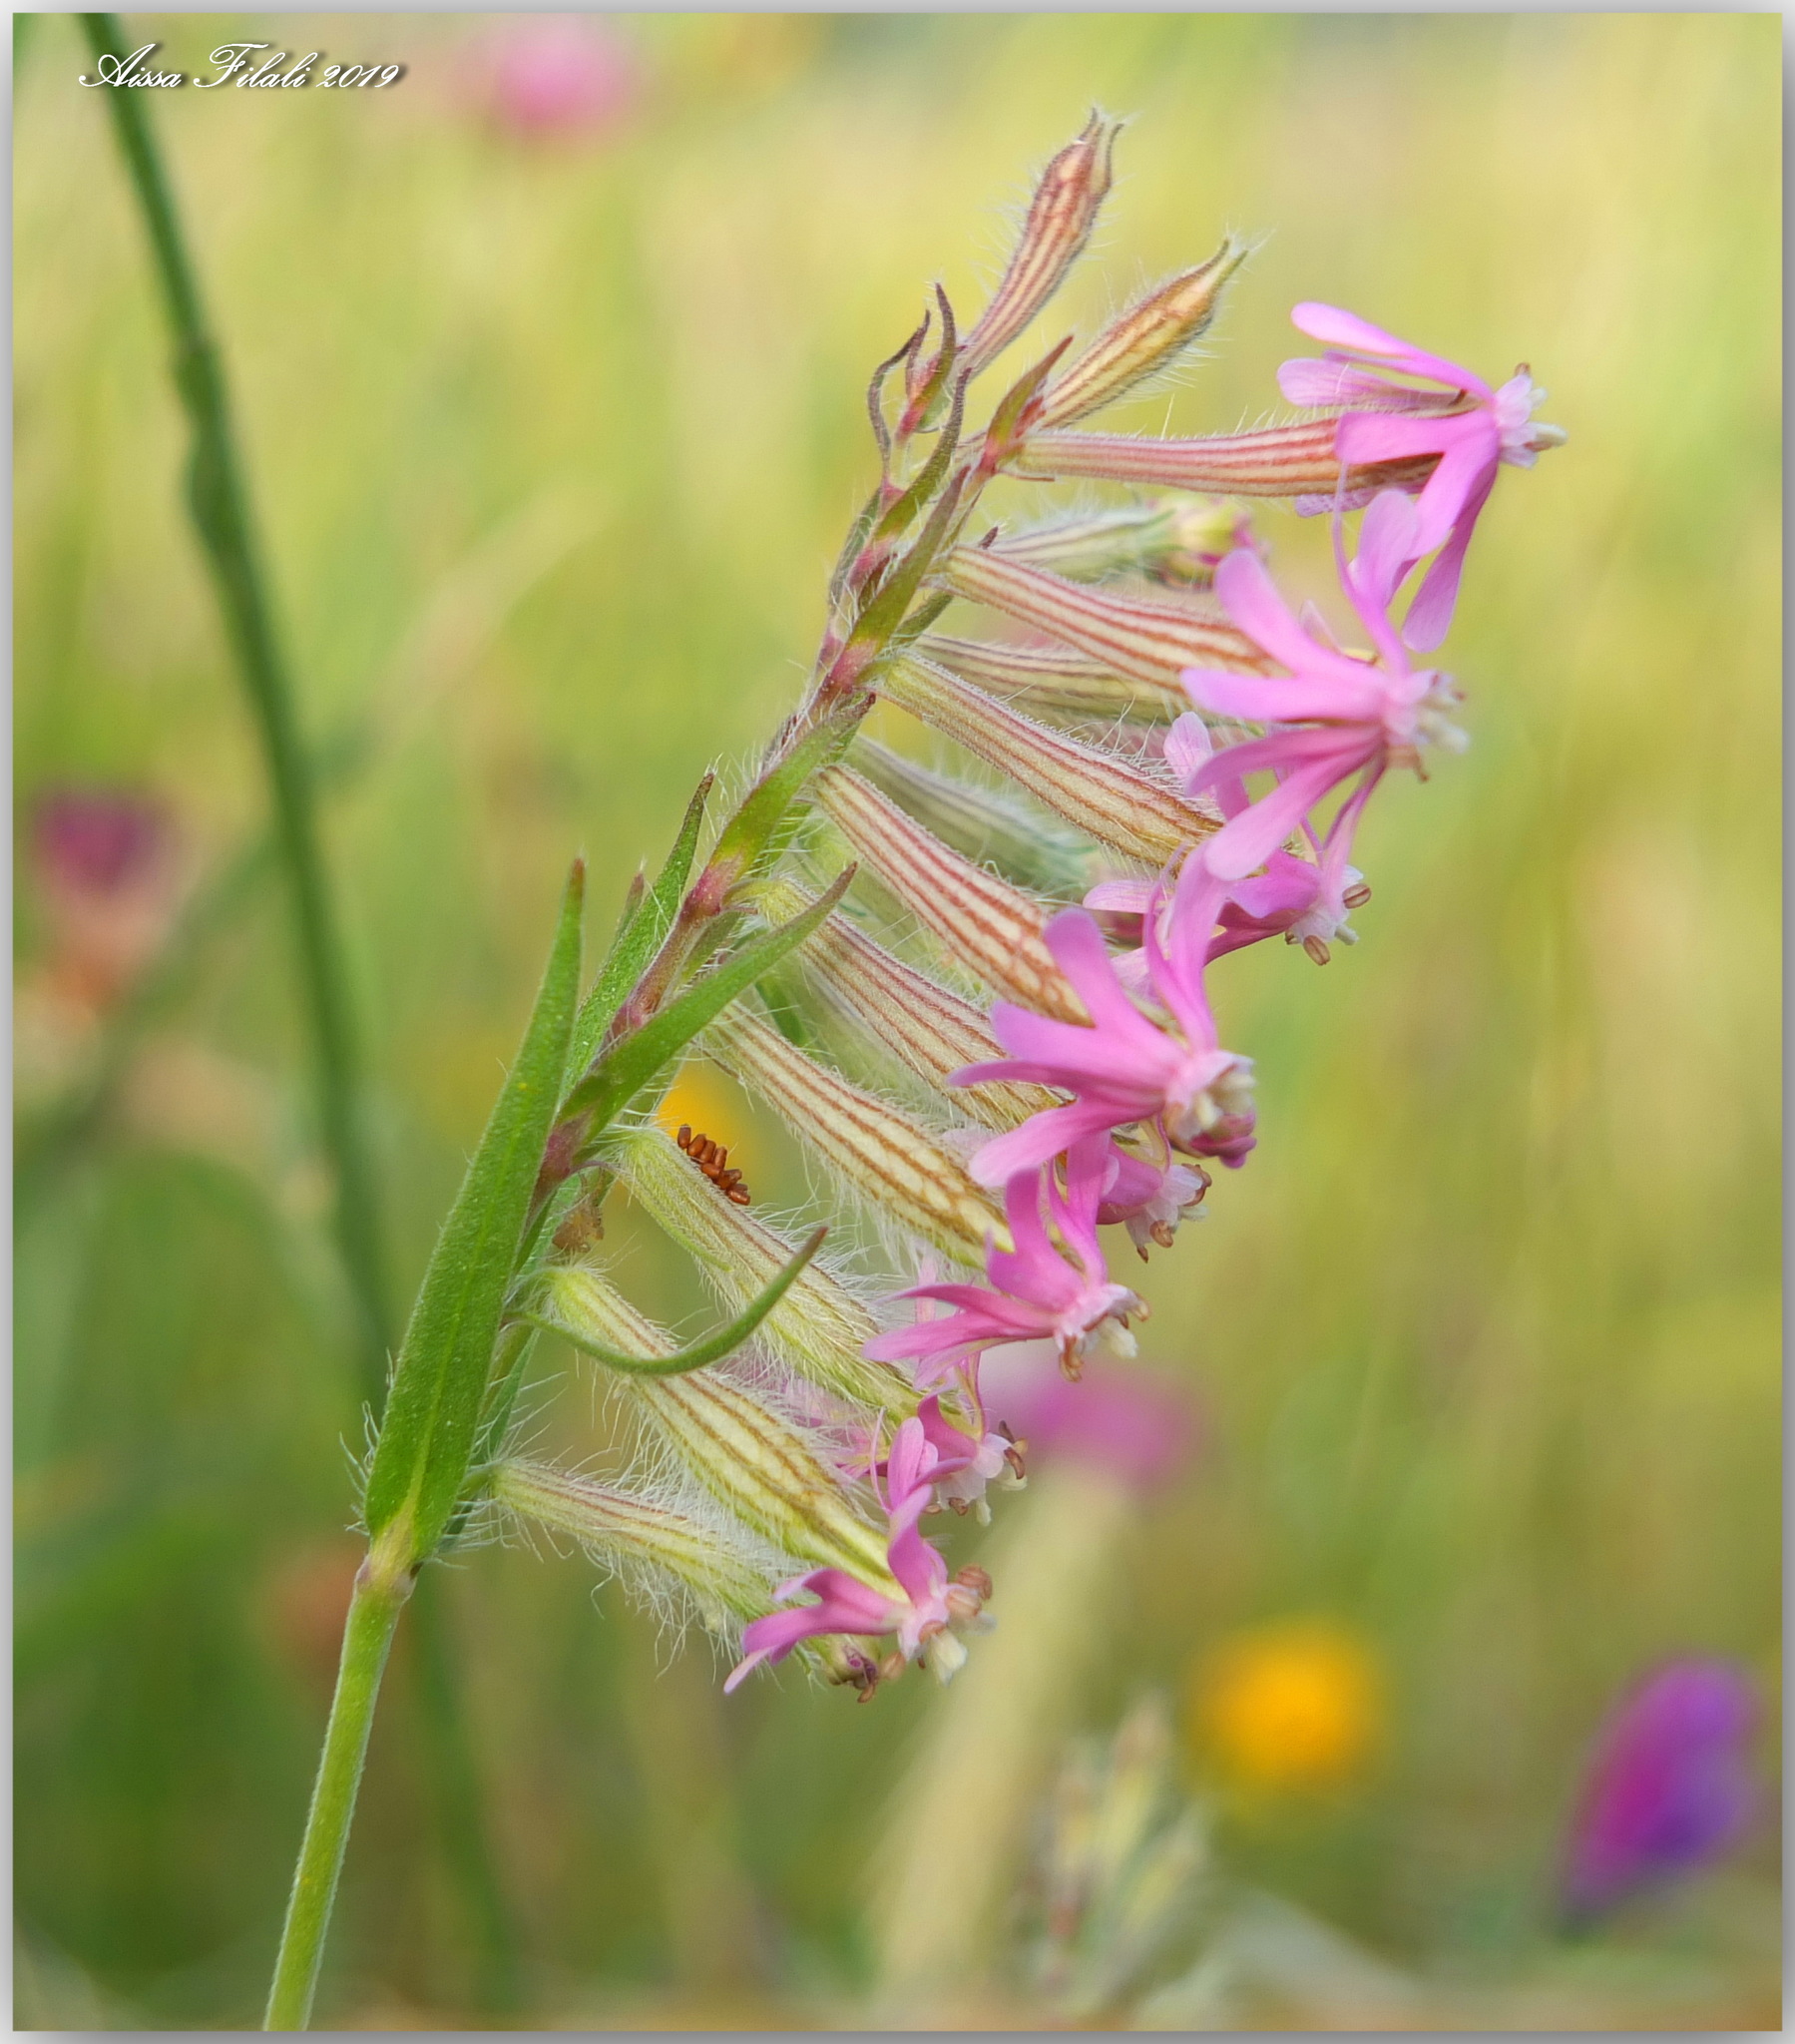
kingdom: Plantae
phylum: Tracheophyta
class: Magnoliopsida
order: Caryophyllales
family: Caryophyllaceae
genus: Silene
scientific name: Silene bellidifolia
